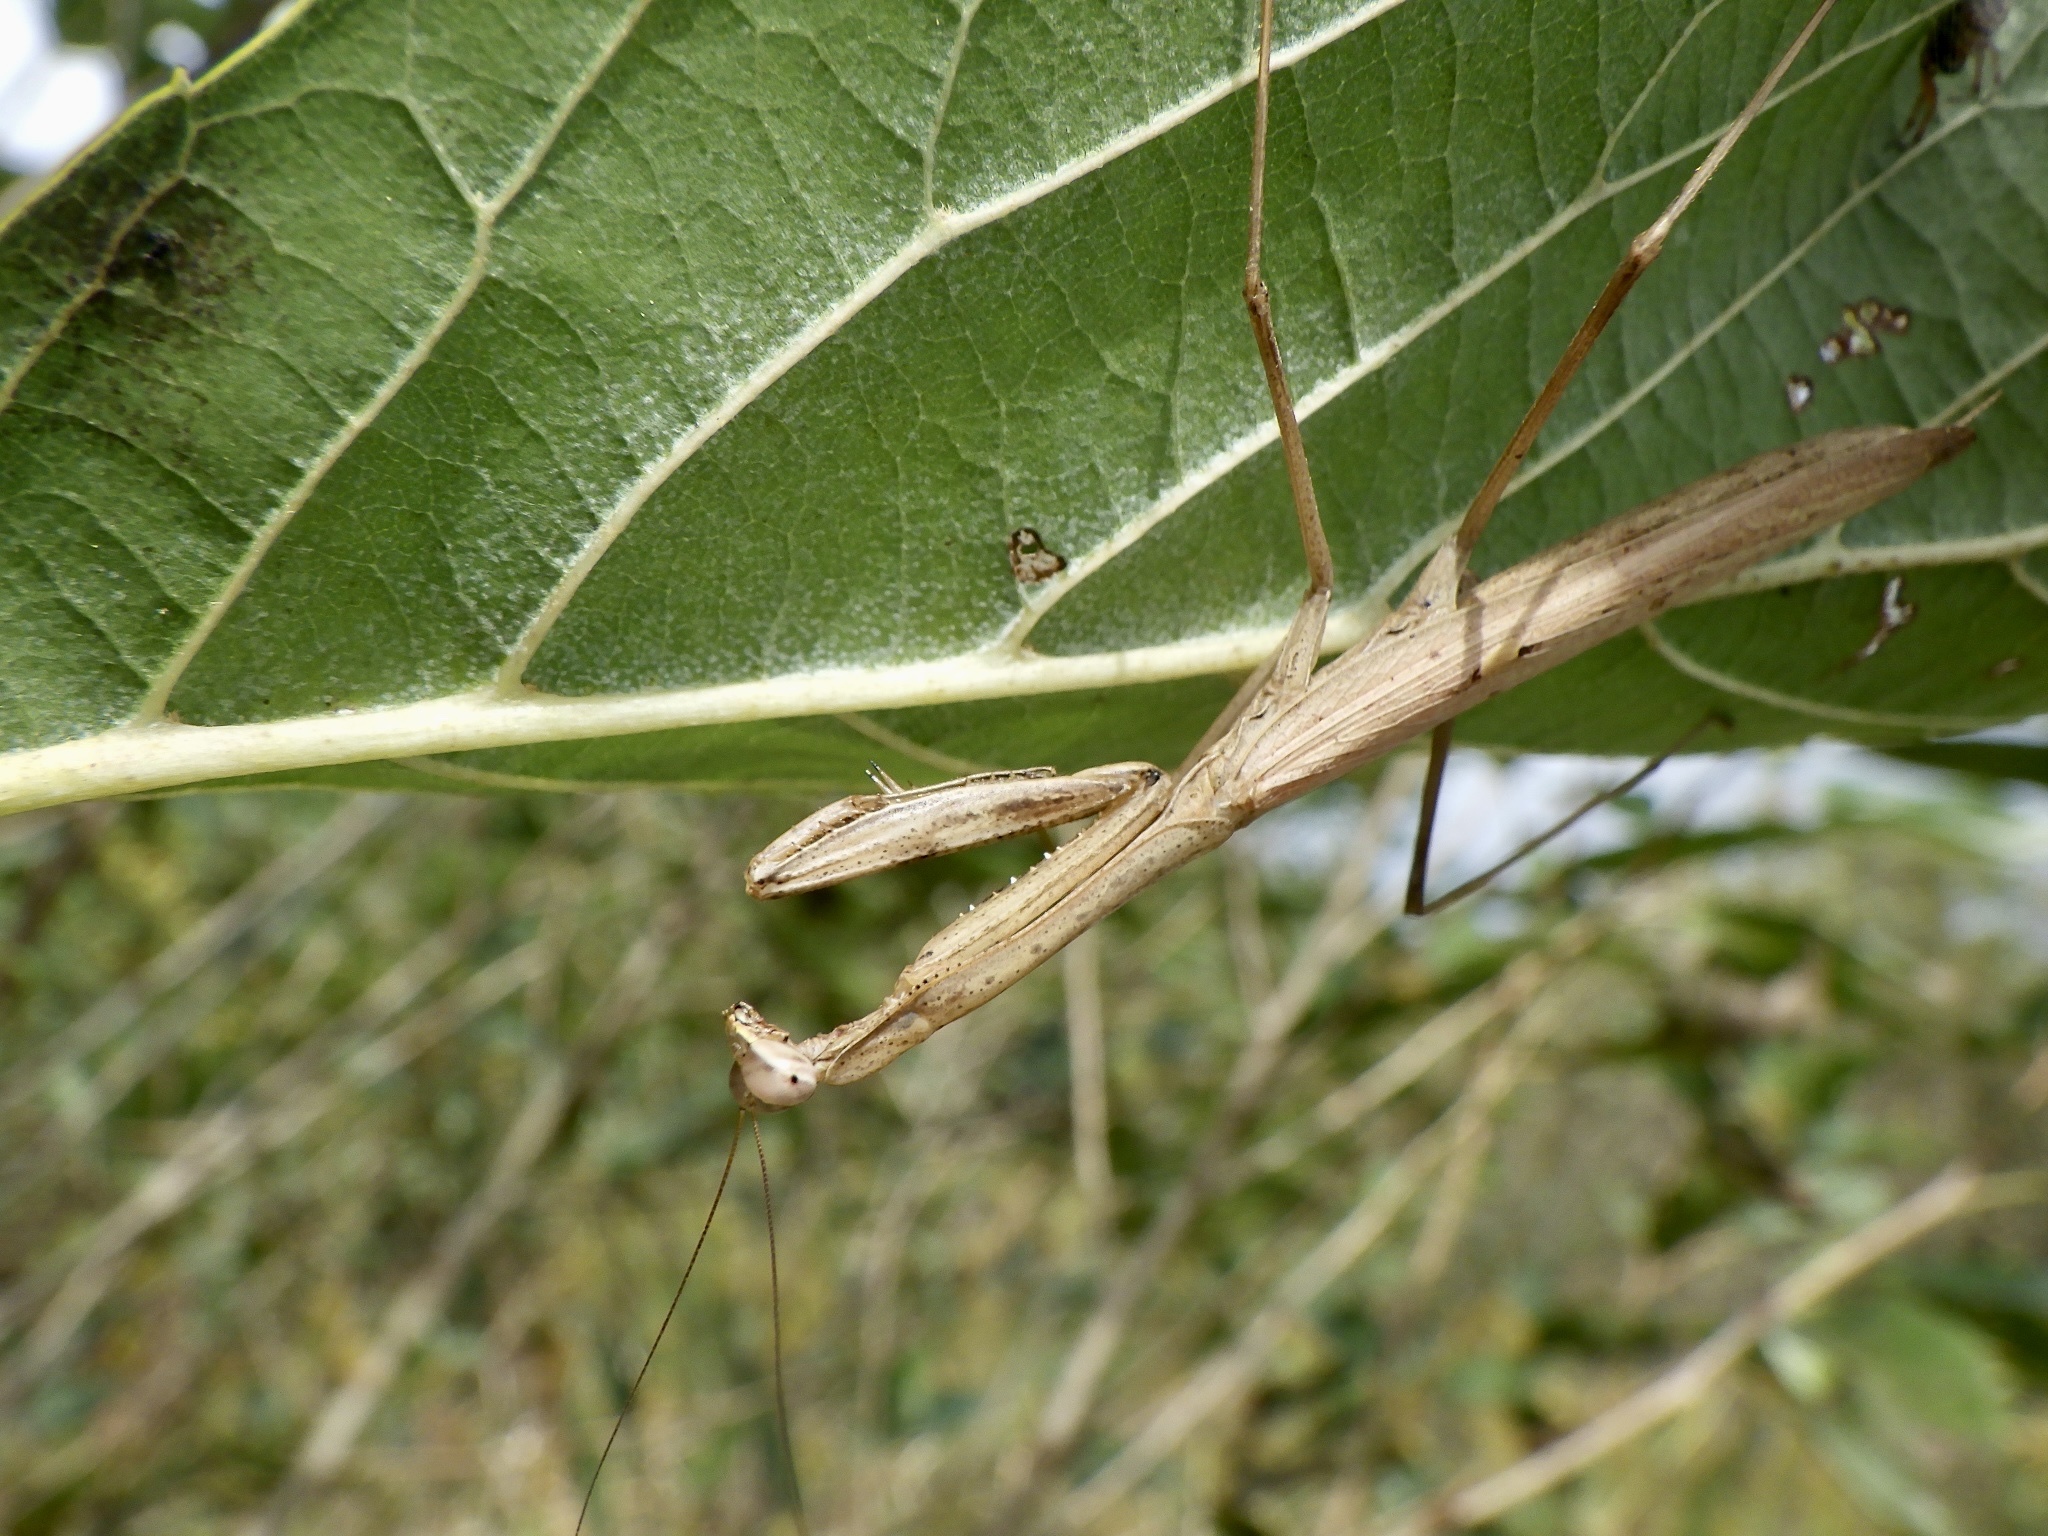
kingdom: Animalia
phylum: Arthropoda
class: Insecta
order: Mantodea
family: Mantidae
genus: Statilia
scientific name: Statilia maculata
